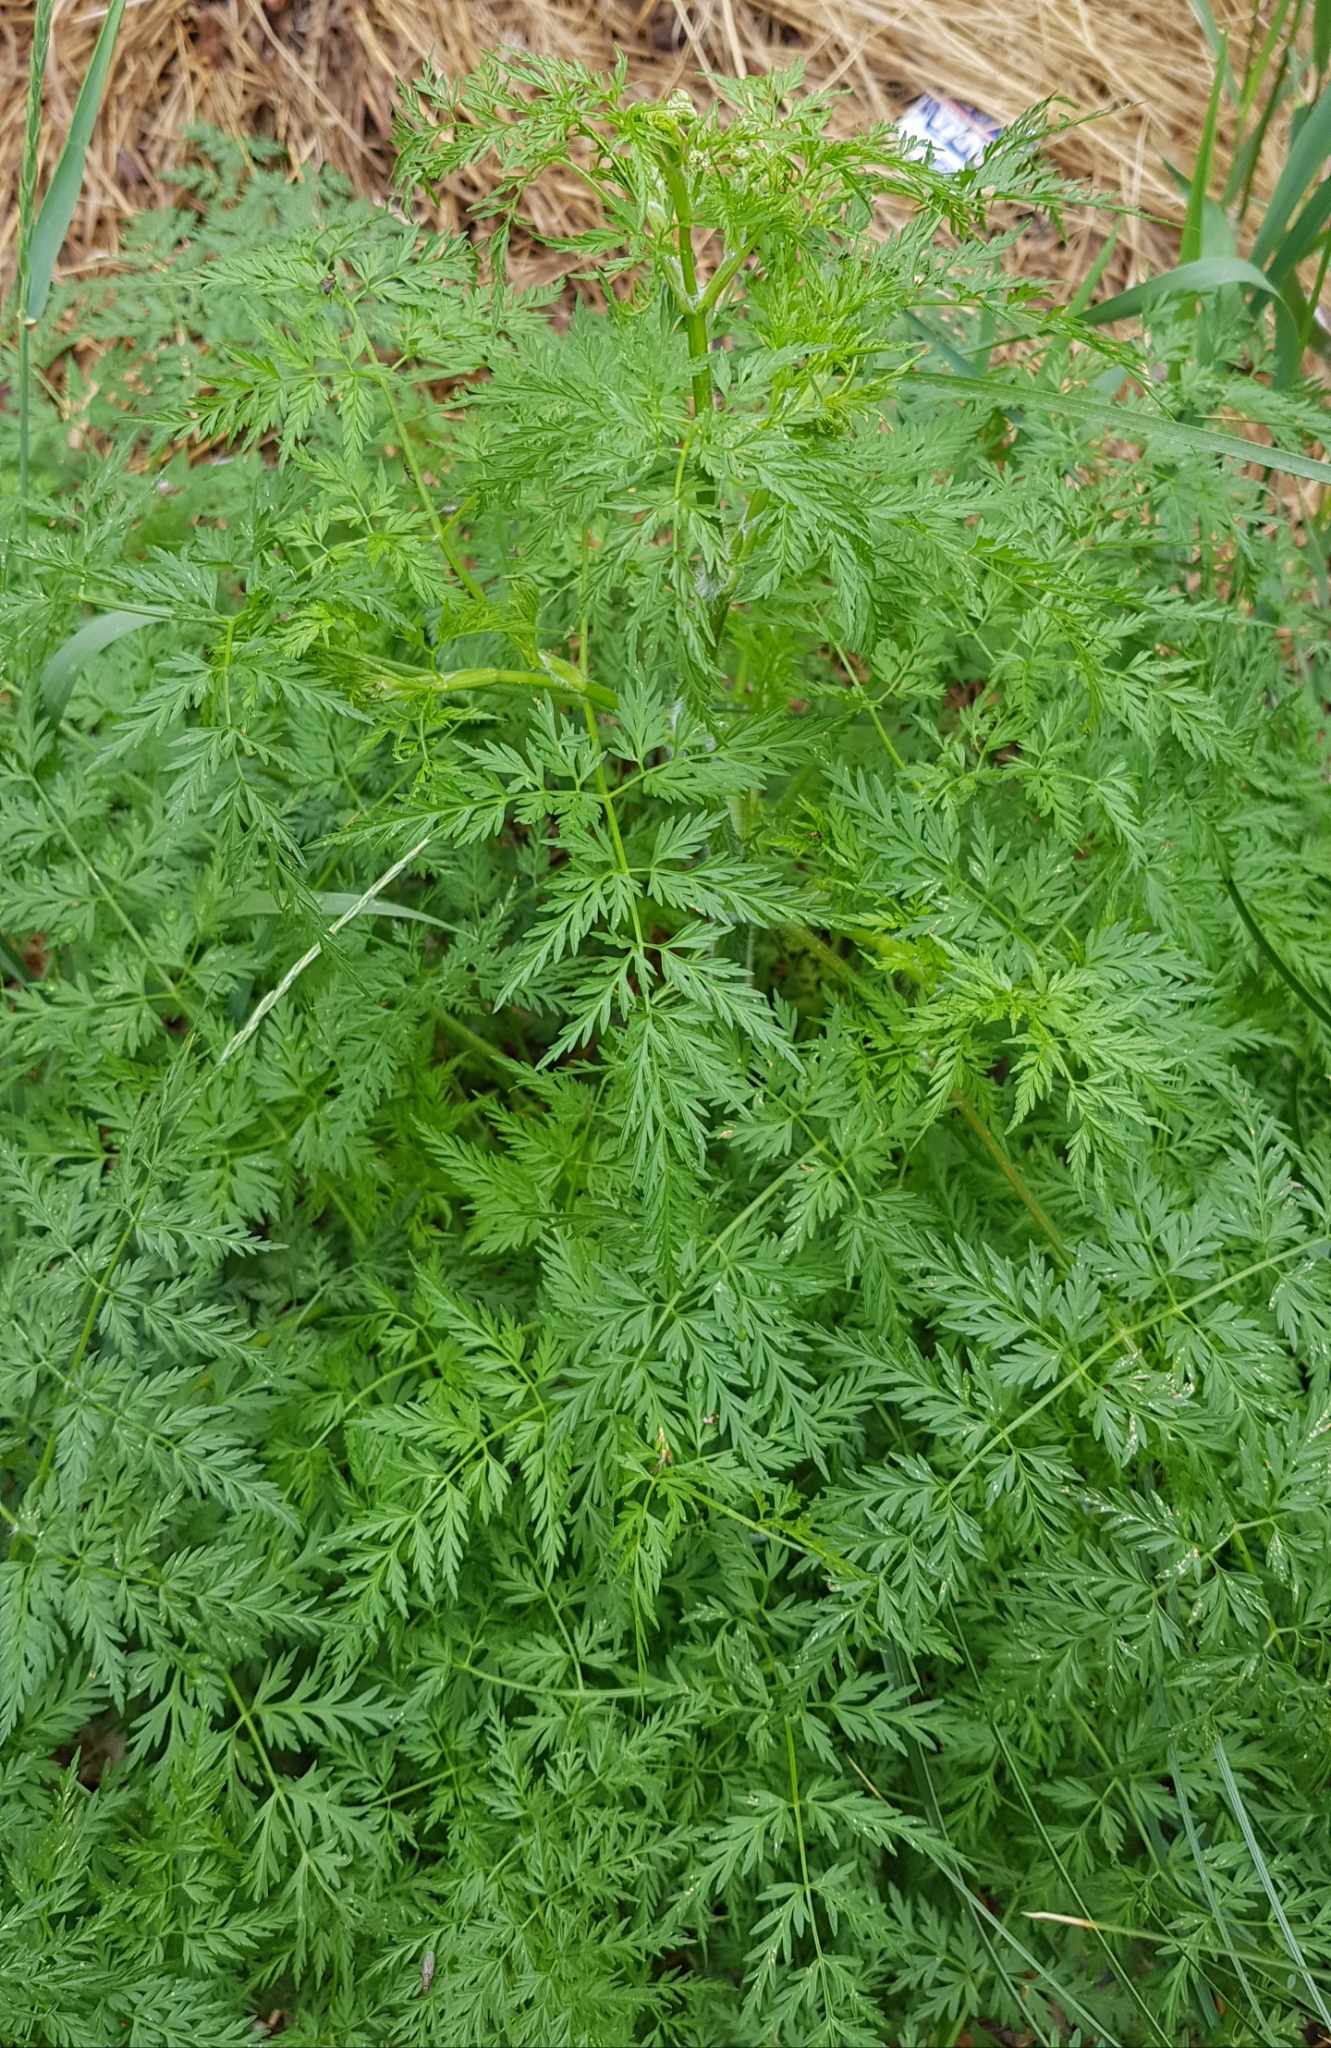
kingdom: Plantae
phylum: Tracheophyta
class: Magnoliopsida
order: Apiales
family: Apiaceae
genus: Sphallerocarpus
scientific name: Sphallerocarpus gracilis
